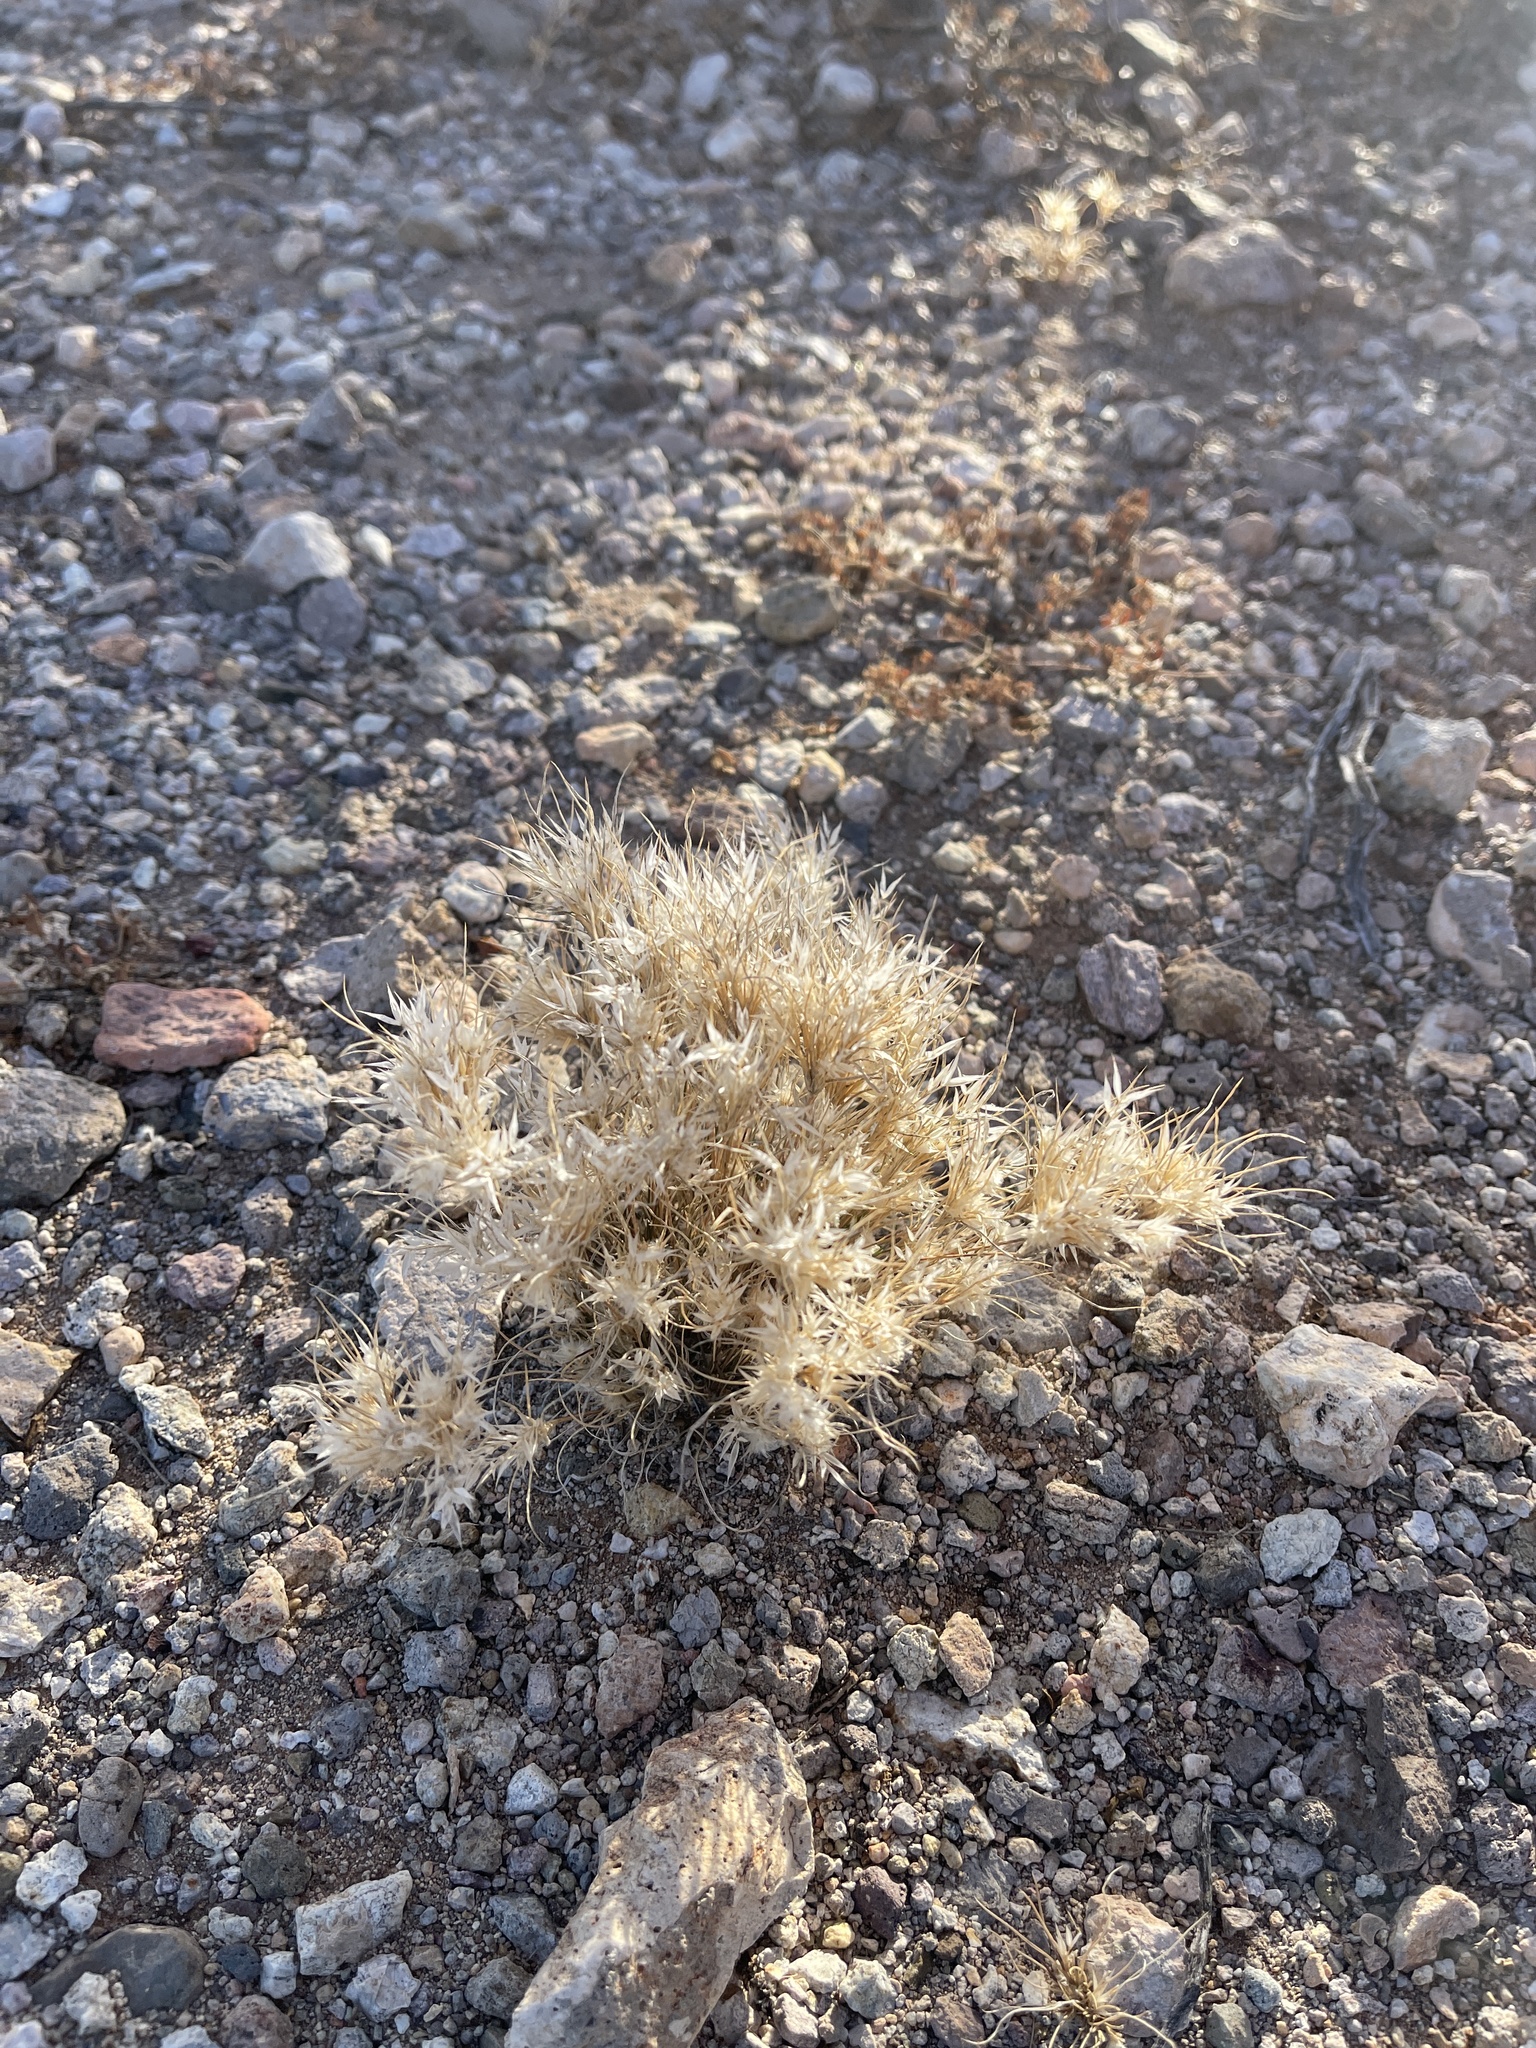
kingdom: Plantae
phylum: Tracheophyta
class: Liliopsida
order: Poales
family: Poaceae
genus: Dasyochloa
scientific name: Dasyochloa pulchella
